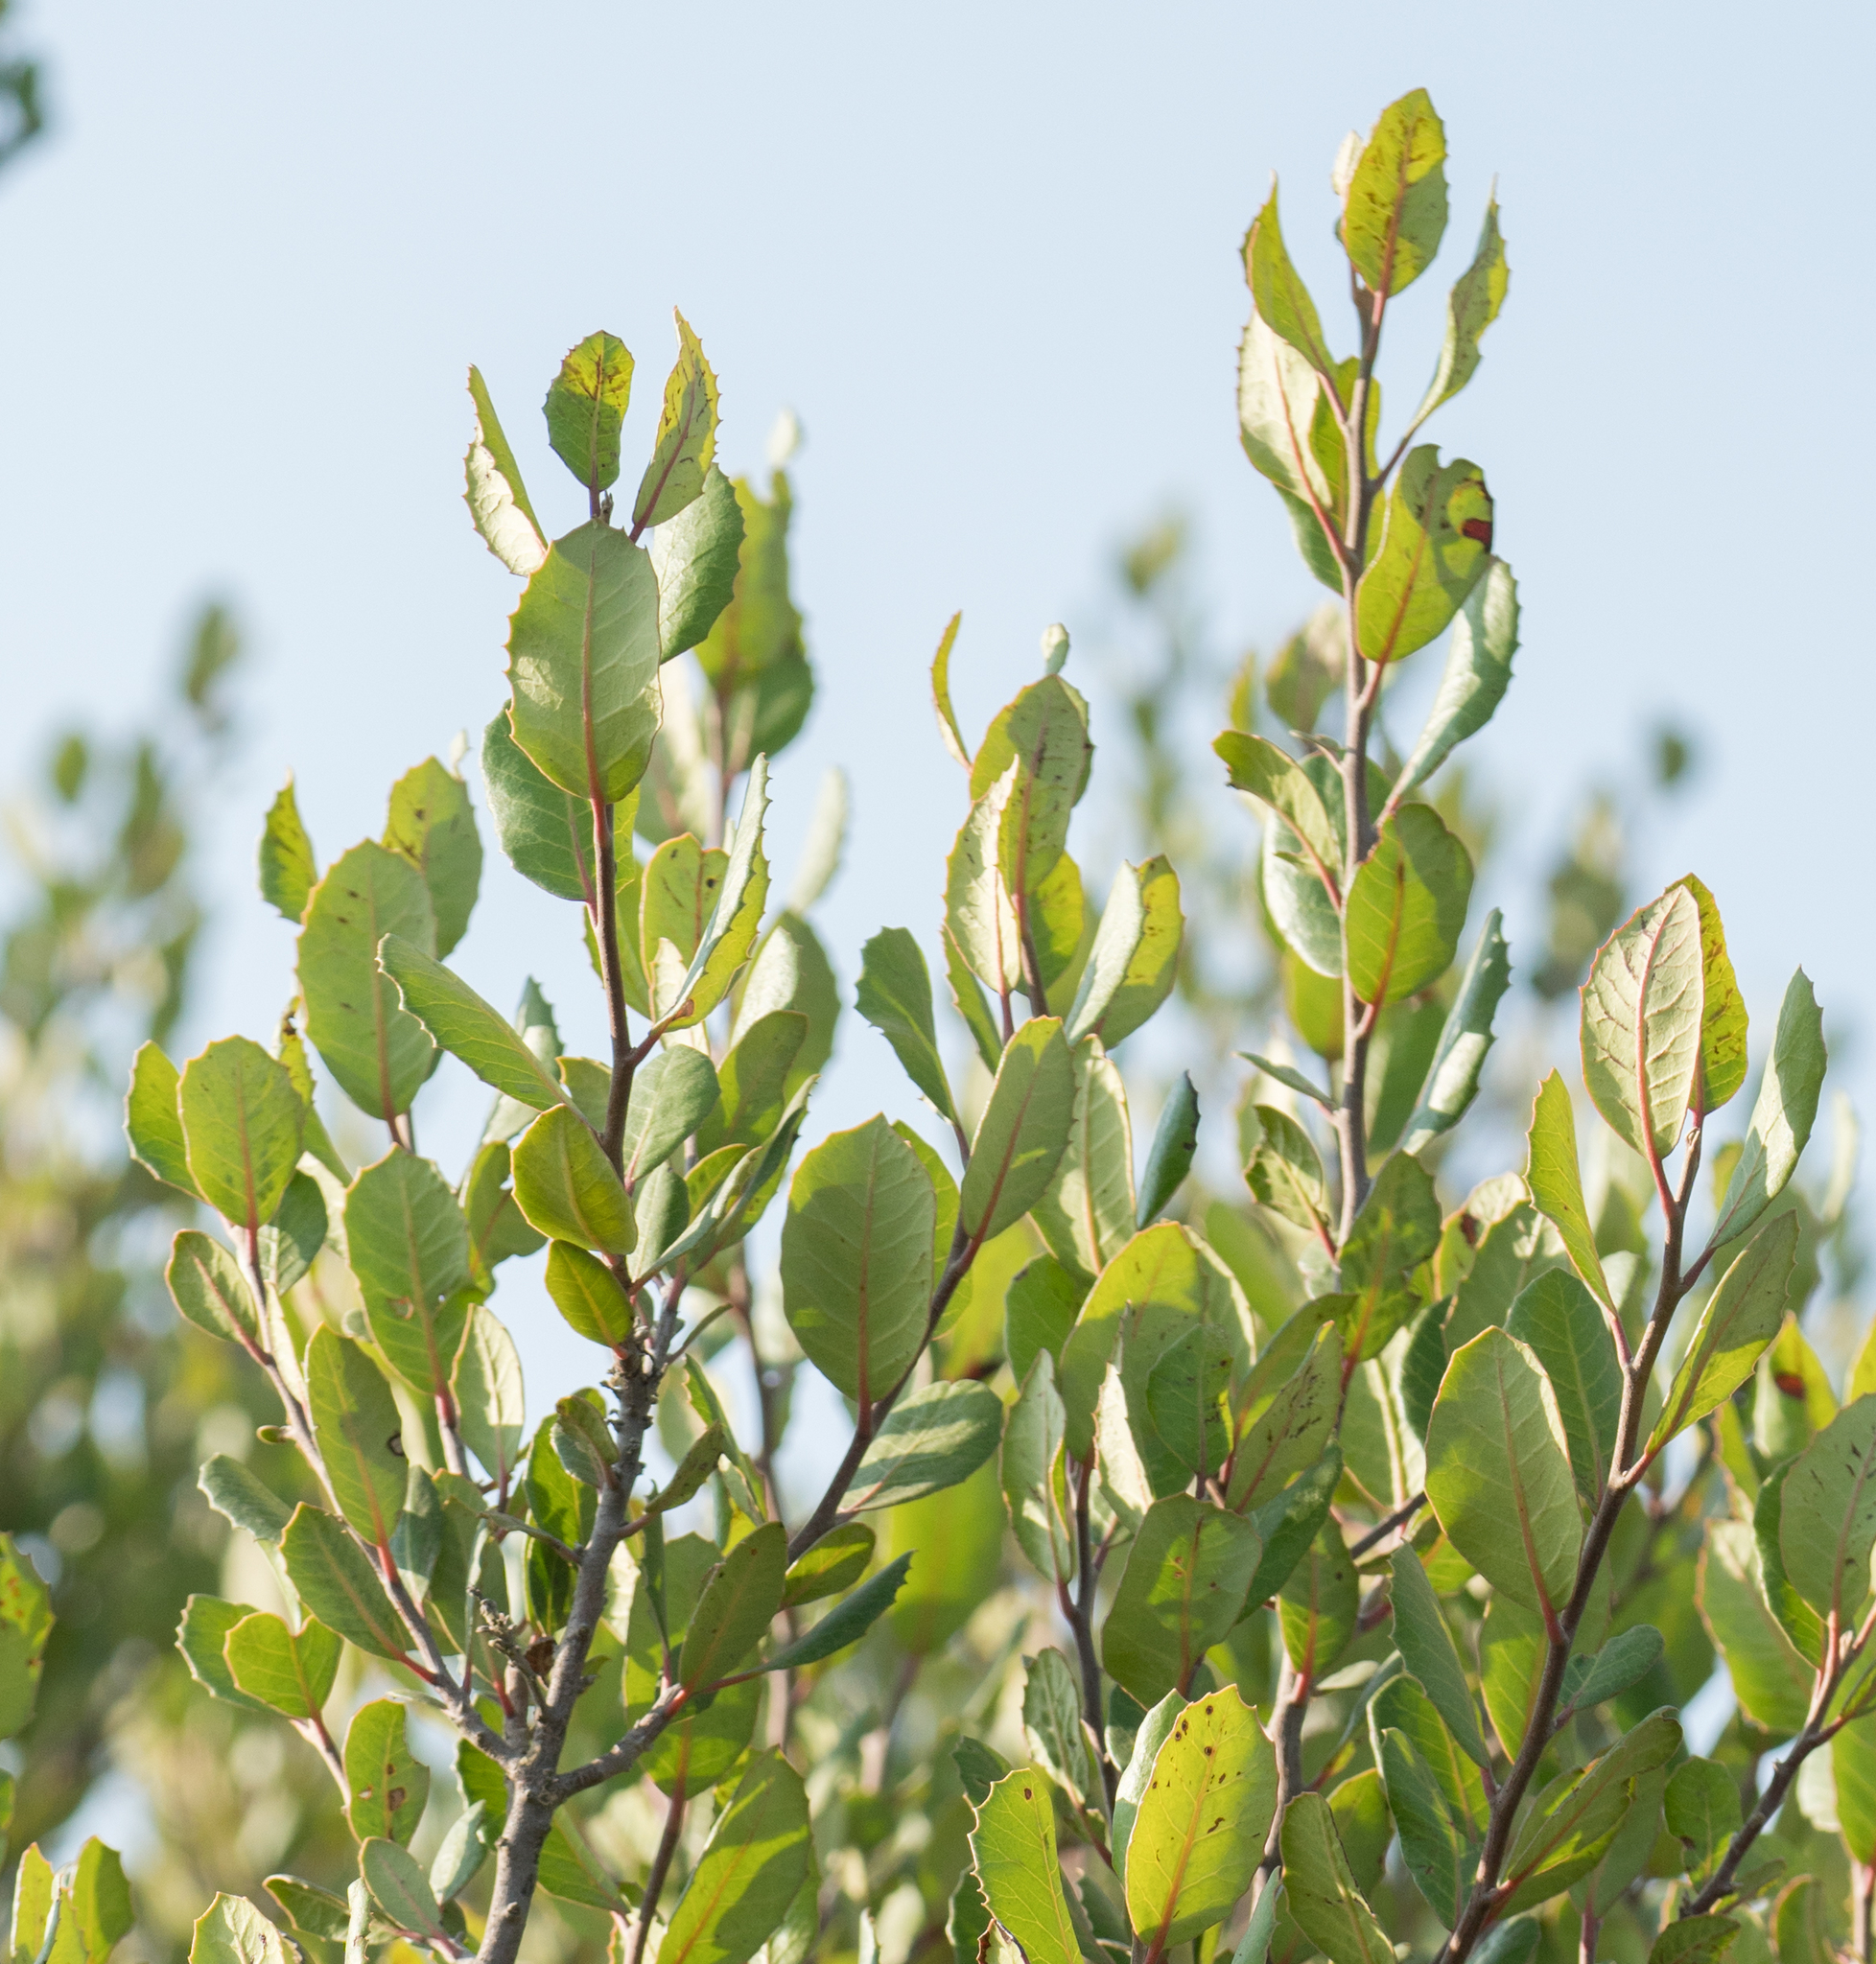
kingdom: Plantae
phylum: Tracheophyta
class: Magnoliopsida
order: Sapindales
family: Anacardiaceae
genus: Rhus
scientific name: Rhus integrifolia
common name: Lemonade sumac
